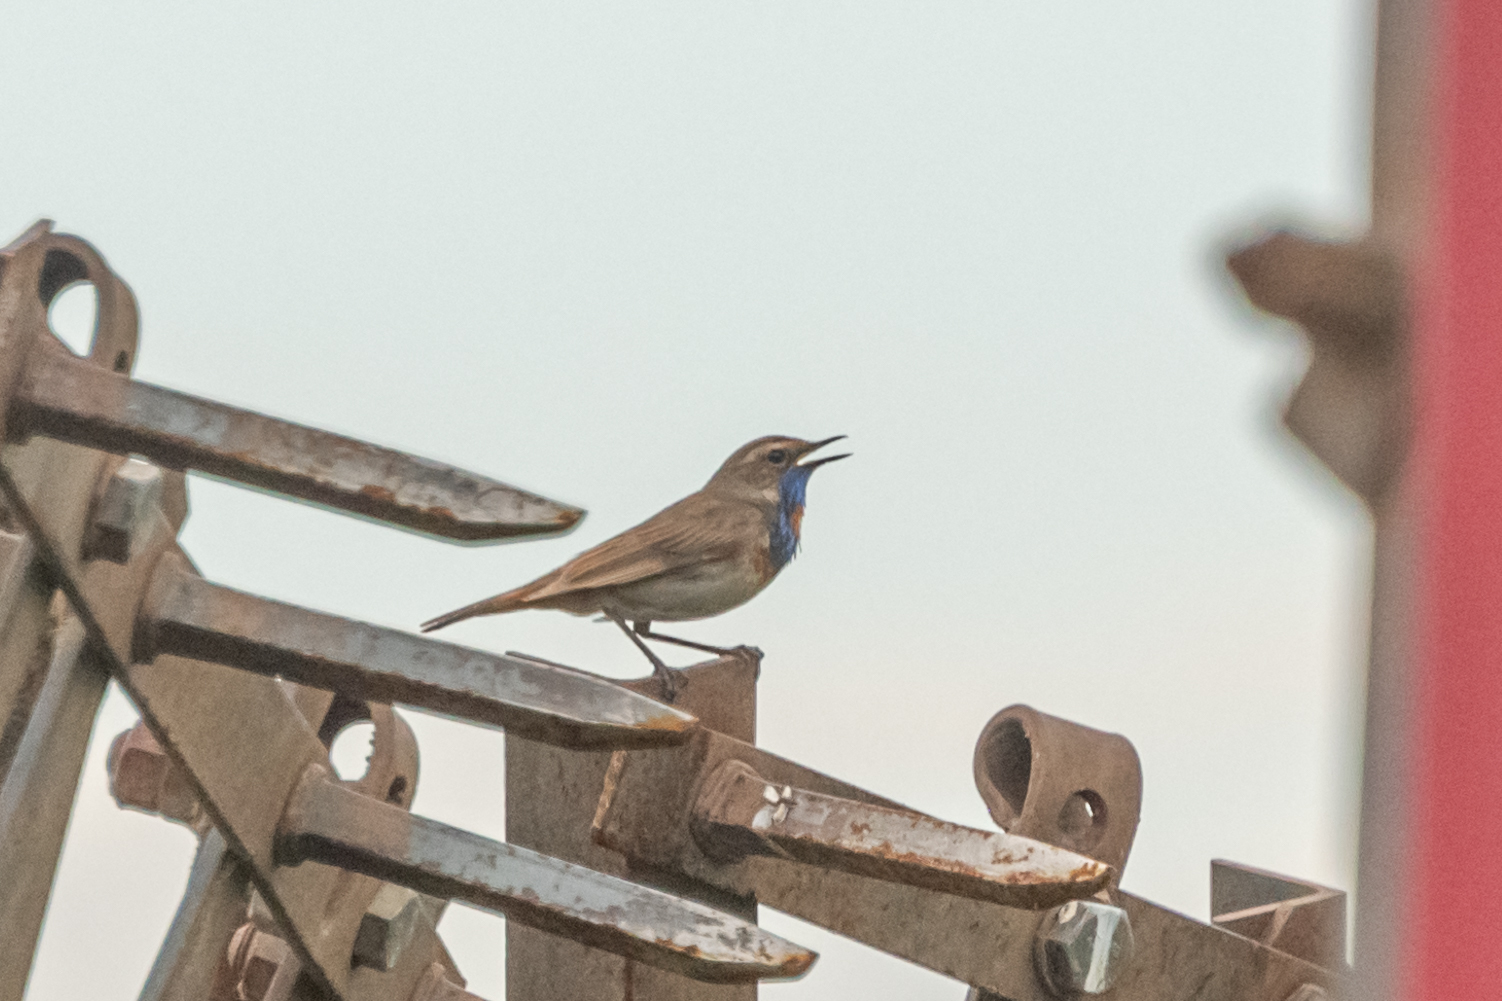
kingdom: Animalia
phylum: Chordata
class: Aves
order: Passeriformes
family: Muscicapidae
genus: Luscinia
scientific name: Luscinia svecica
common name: Bluethroat
